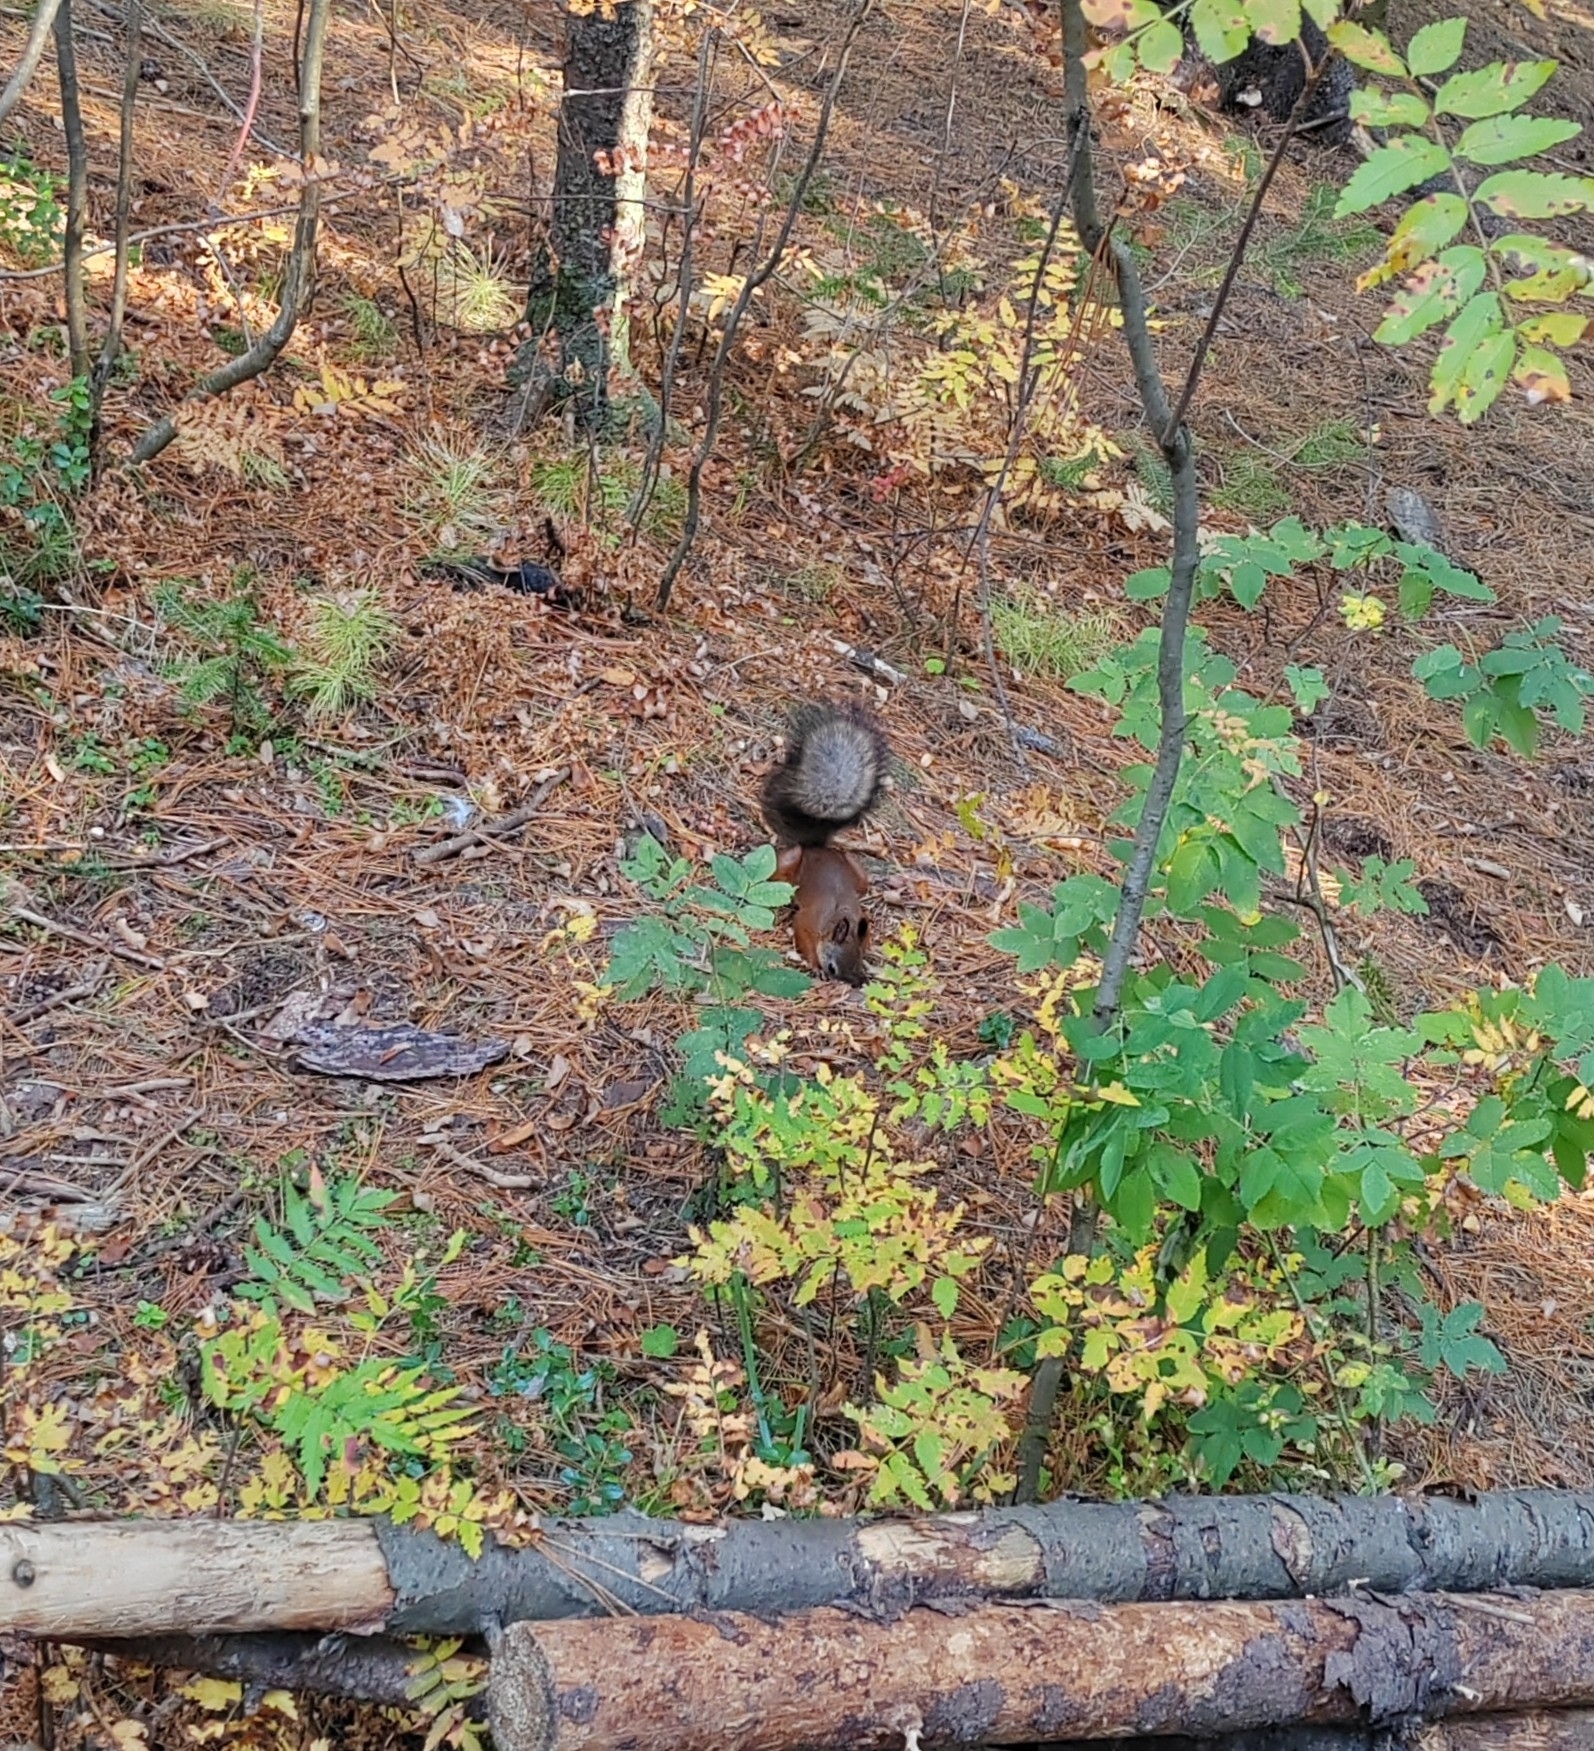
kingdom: Animalia
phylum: Chordata
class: Mammalia
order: Rodentia
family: Sciuridae
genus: Sciurus
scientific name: Sciurus vulgaris
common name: Eurasian red squirrel
